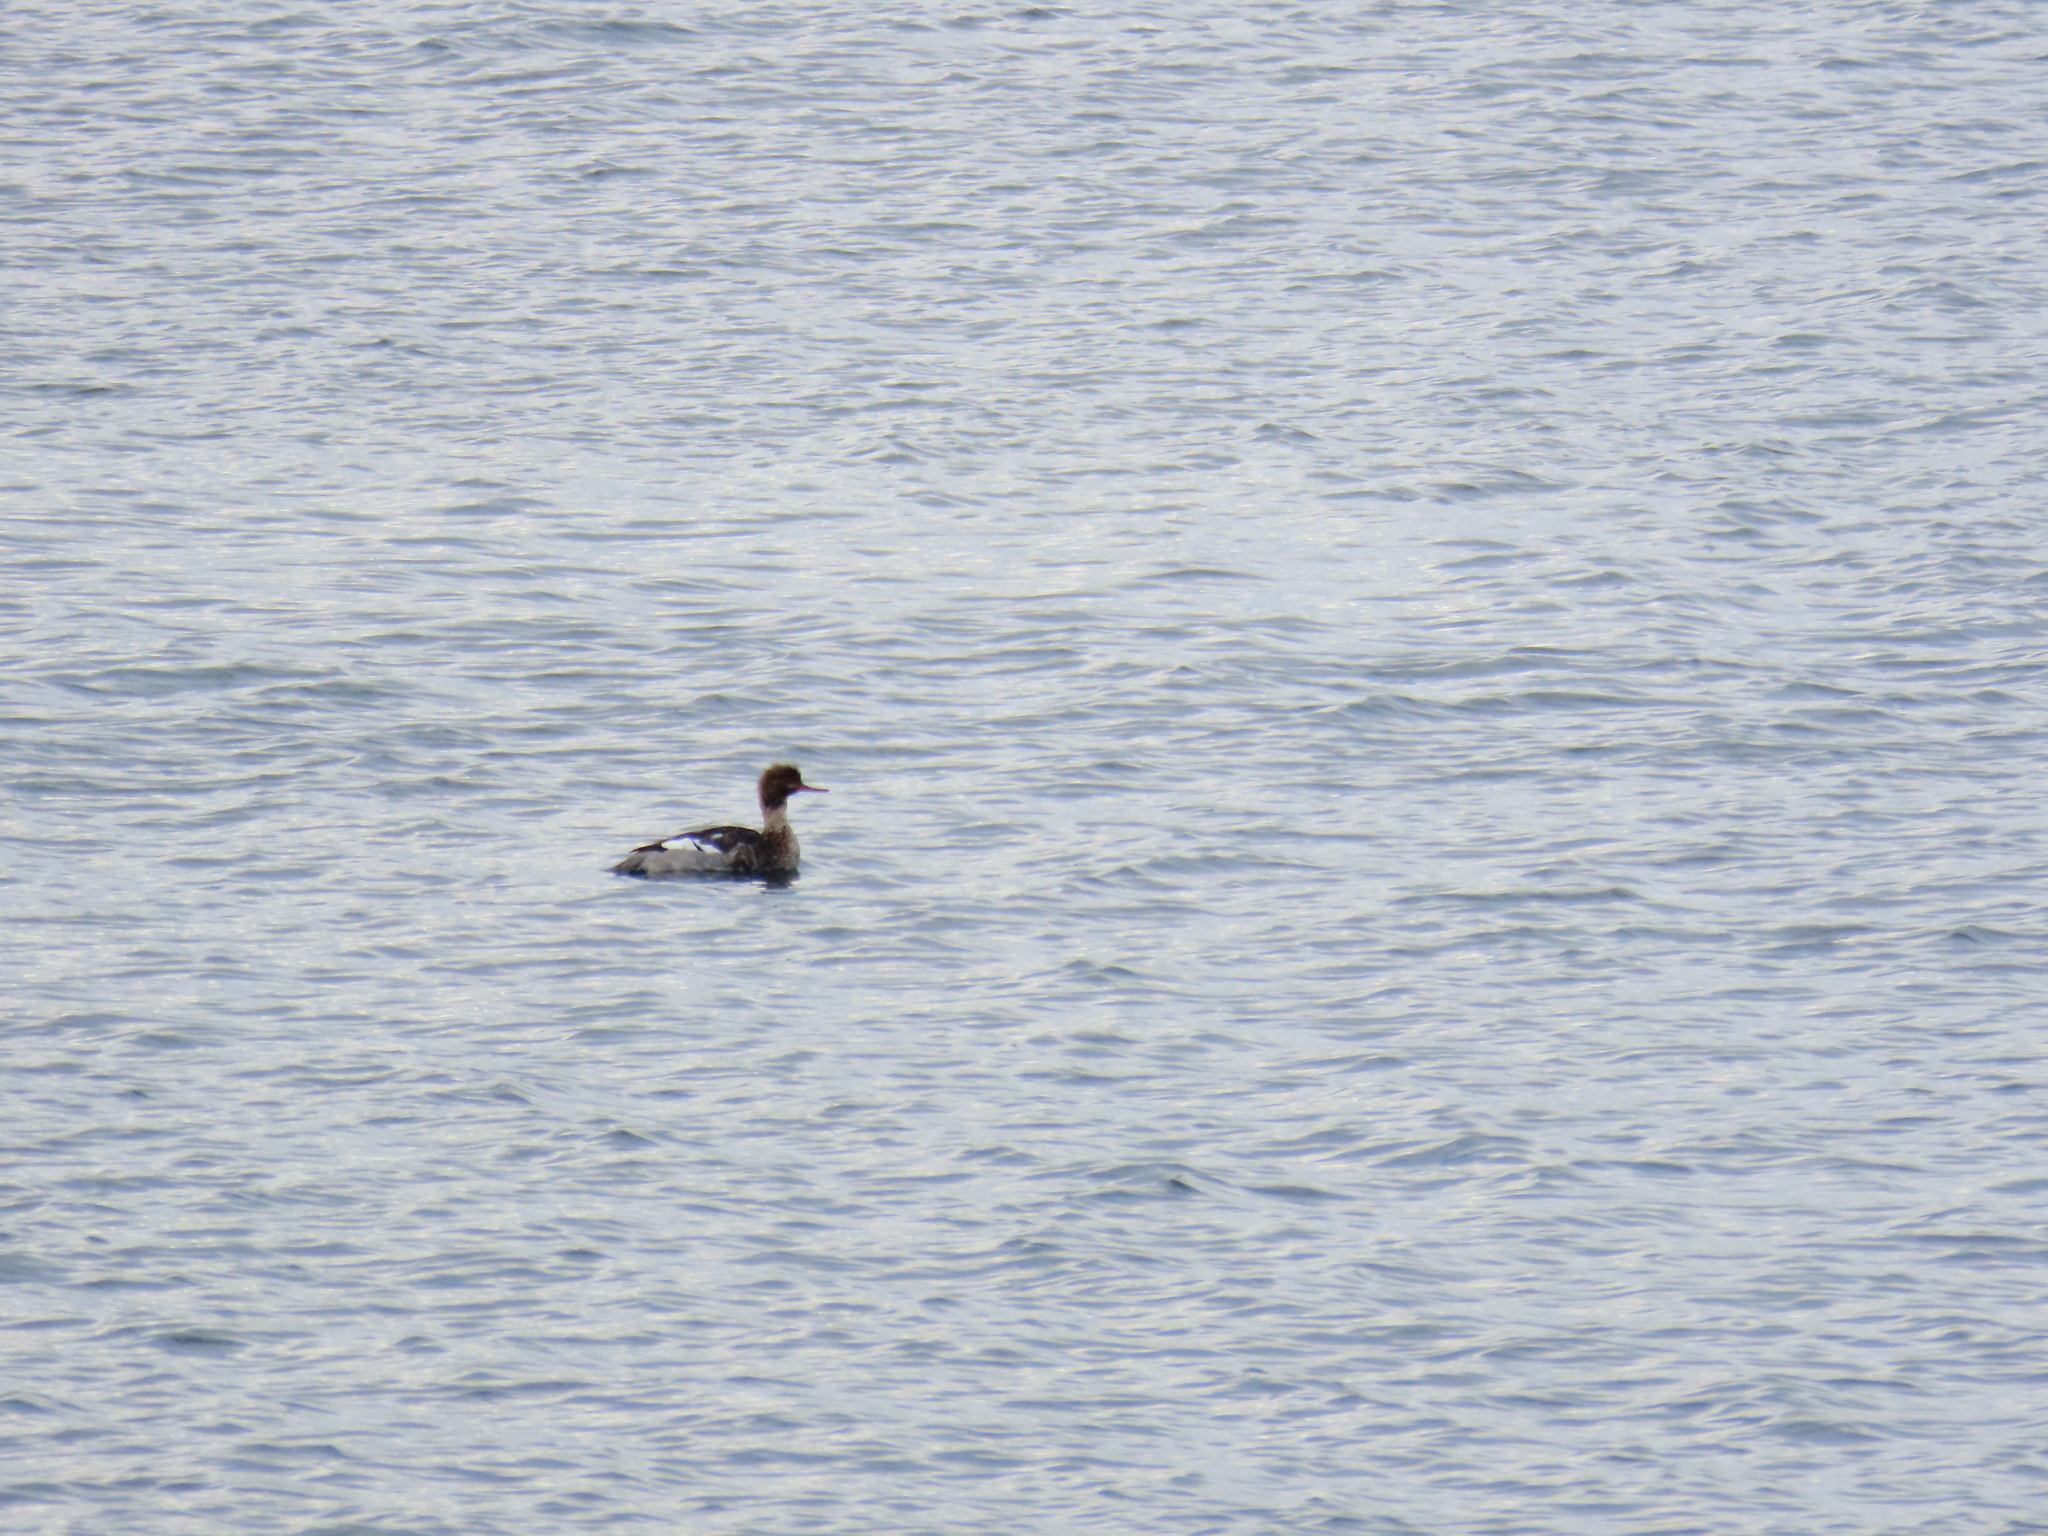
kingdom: Animalia
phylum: Chordata
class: Aves
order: Anseriformes
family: Anatidae
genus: Mergus
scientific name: Mergus serrator
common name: Red-breasted merganser
